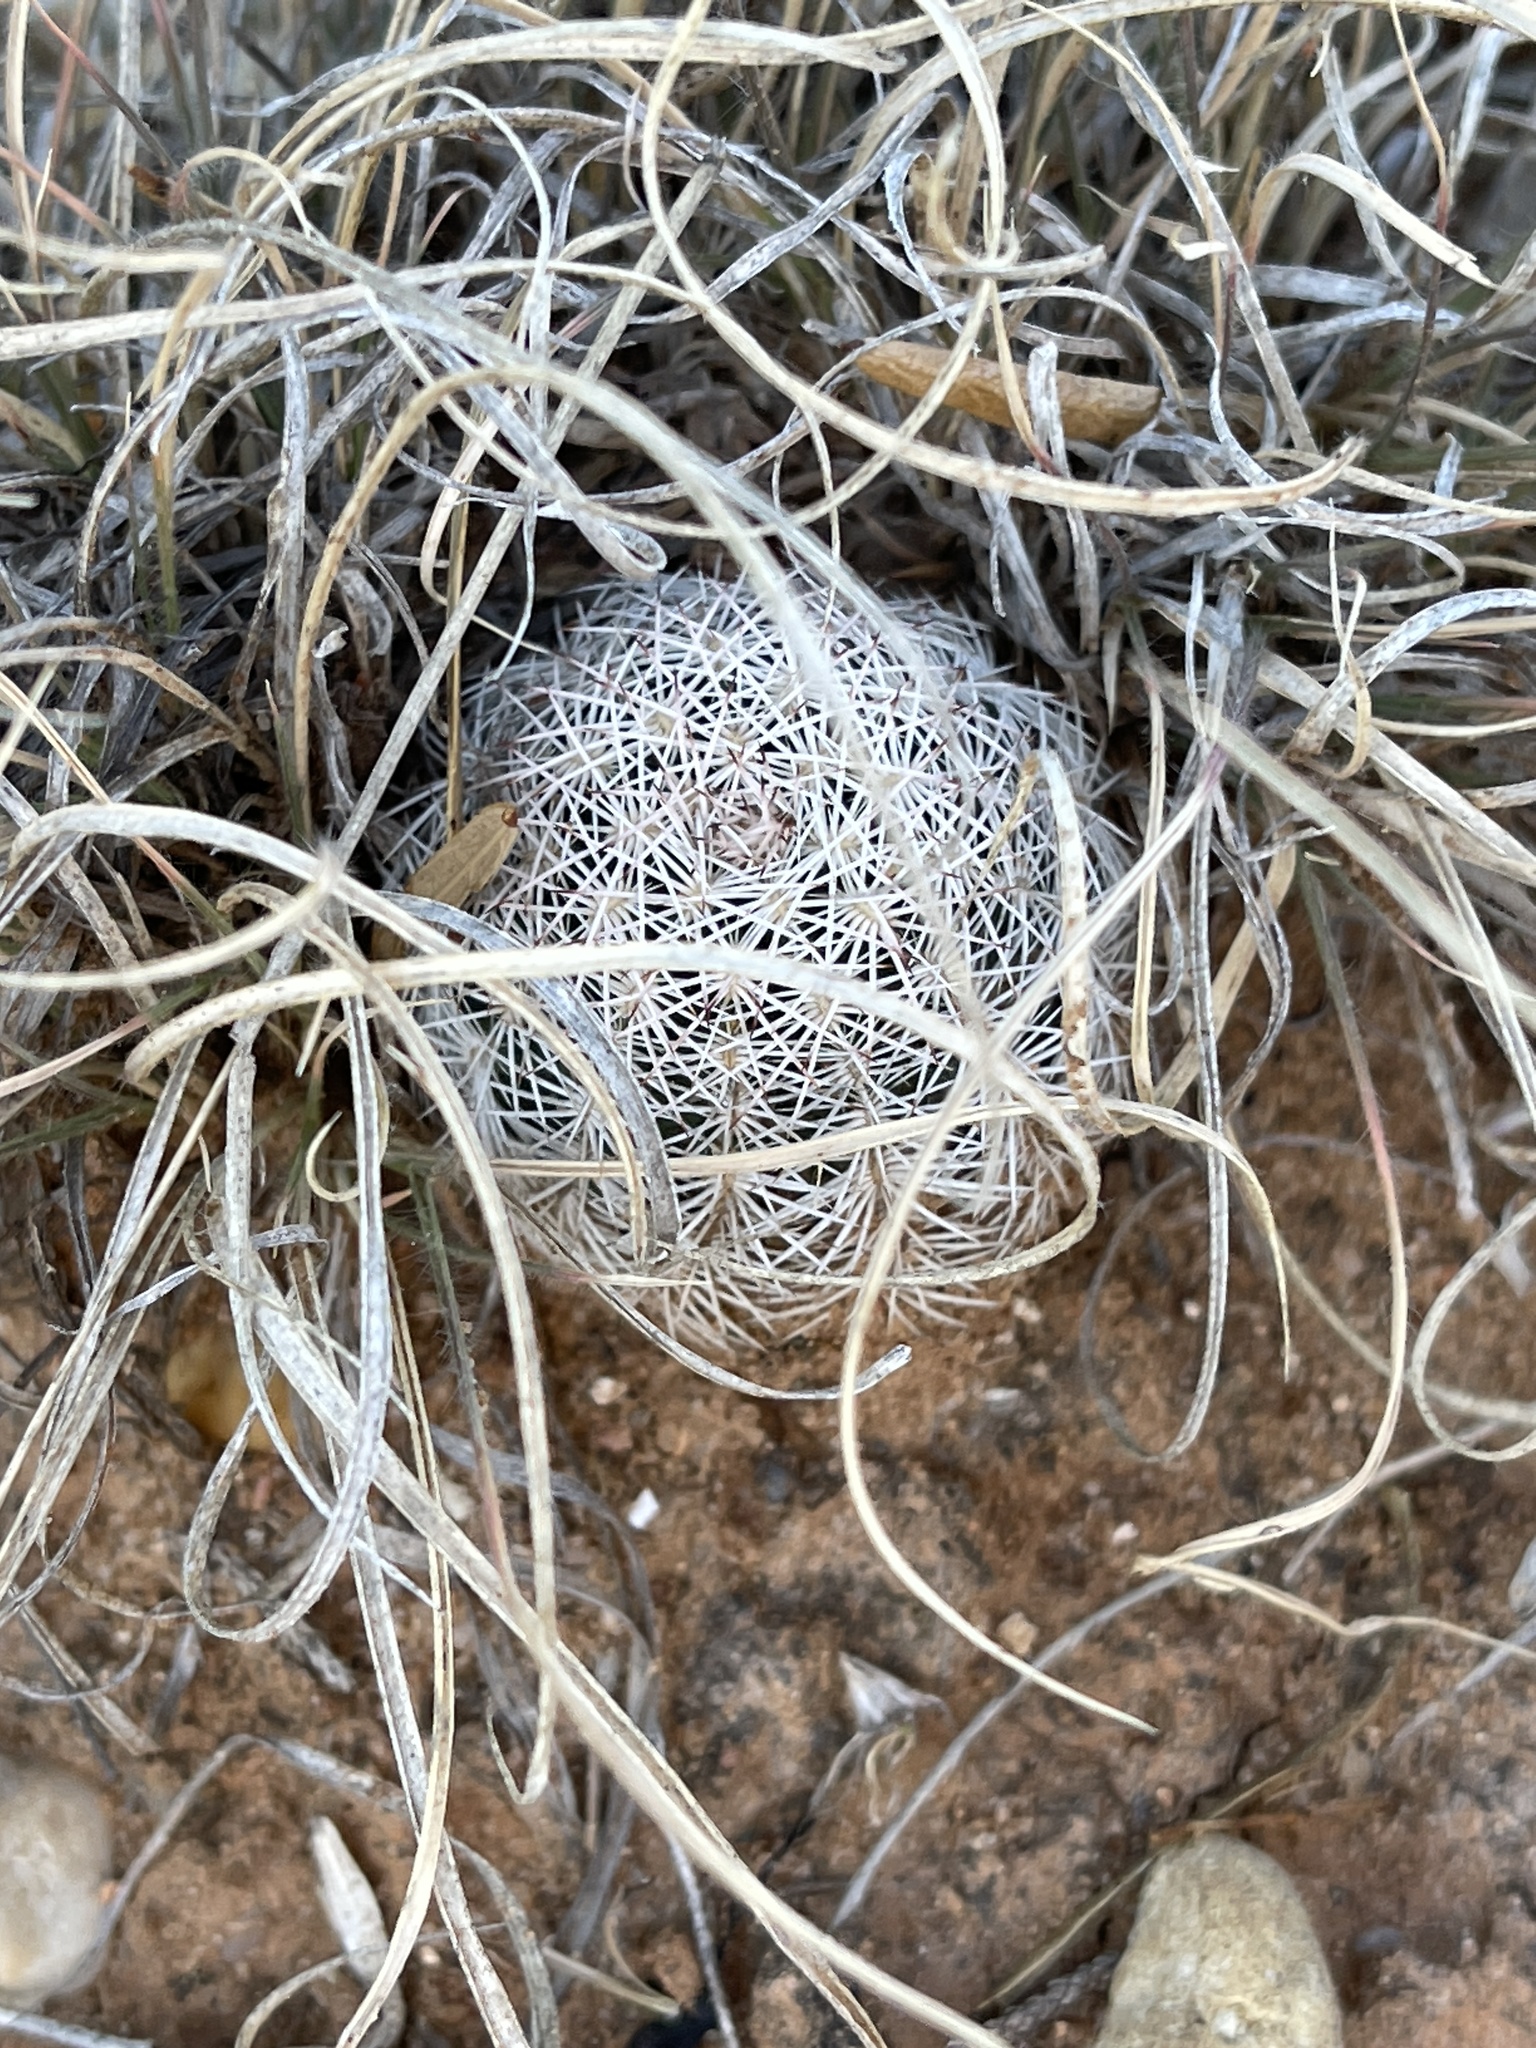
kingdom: Plantae
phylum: Tracheophyta
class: Magnoliopsida
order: Caryophyllales
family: Cactaceae
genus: Echinocereus
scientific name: Echinocereus reichenbachii
